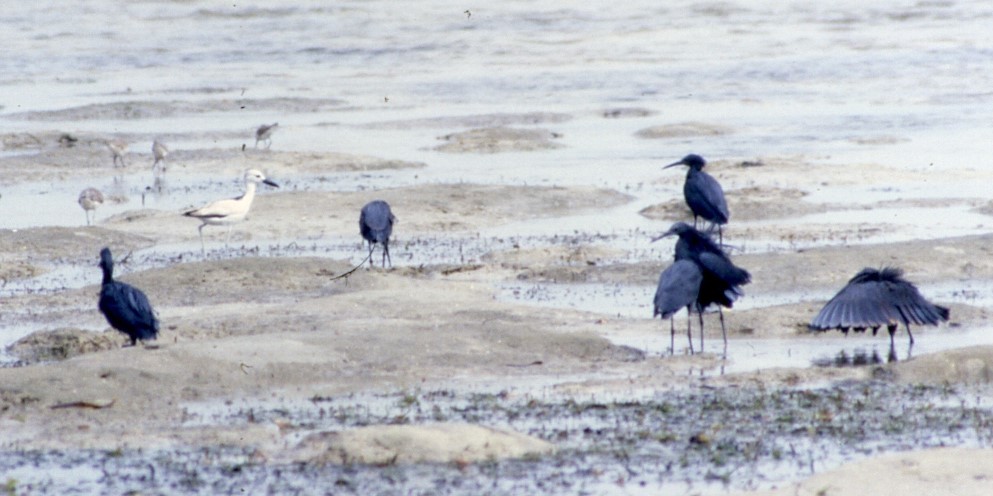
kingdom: Animalia
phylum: Chordata
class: Aves
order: Pelecaniformes
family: Ardeidae
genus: Egretta
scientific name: Egretta ardesiaca
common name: Black heron
